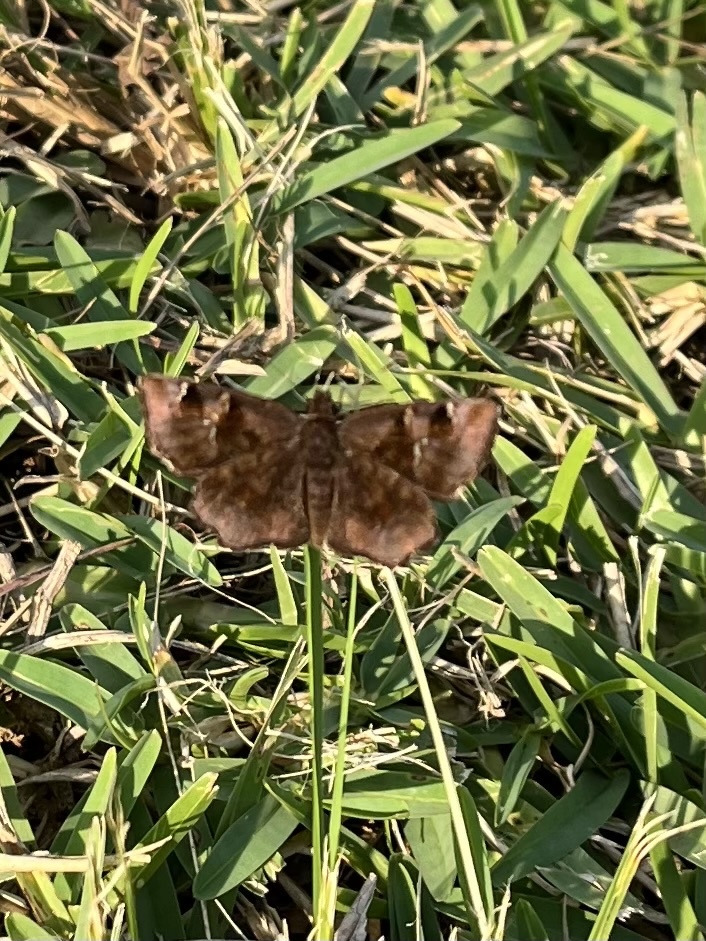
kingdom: Animalia
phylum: Arthropoda
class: Insecta
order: Lepidoptera
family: Hesperiidae
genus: Eretis
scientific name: Eretis djaelaelae
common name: Marbled elf
